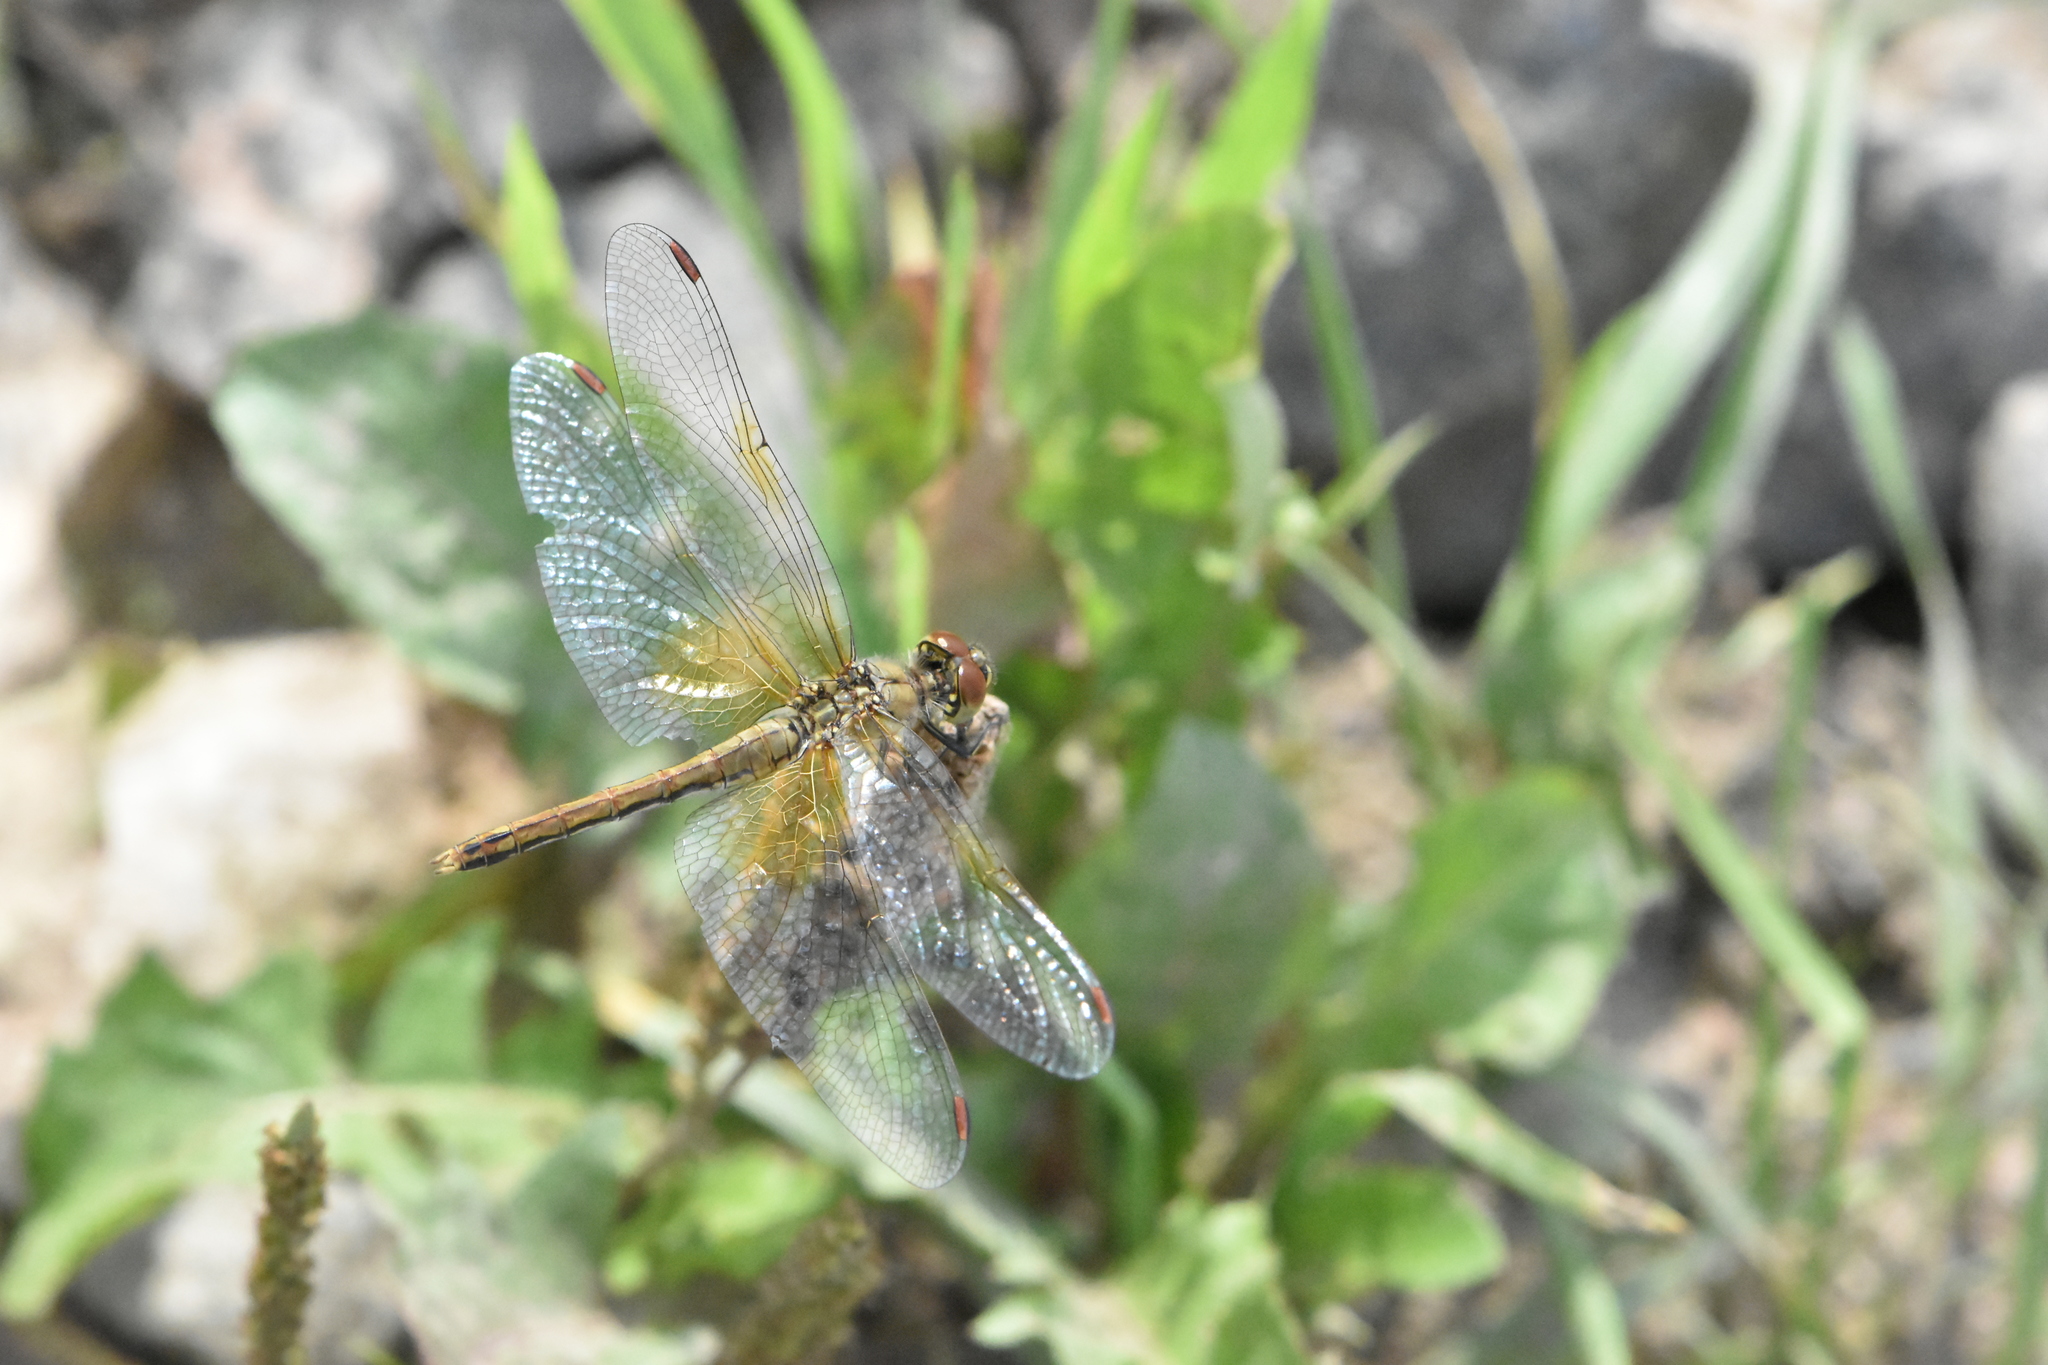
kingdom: Animalia
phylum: Arthropoda
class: Insecta
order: Odonata
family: Libellulidae
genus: Sympetrum
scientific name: Sympetrum flaveolum
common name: Yellow-winged darter
